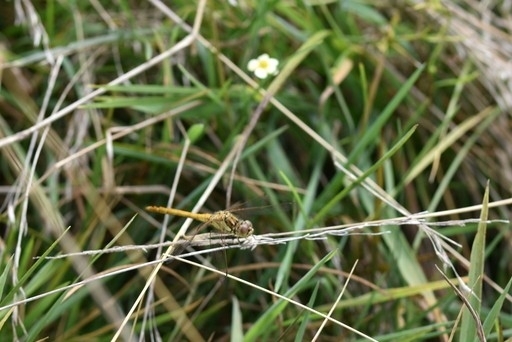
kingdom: Animalia
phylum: Arthropoda
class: Insecta
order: Odonata
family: Libellulidae
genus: Sympetrum
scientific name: Sympetrum vulgatum
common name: Vagrant darter
